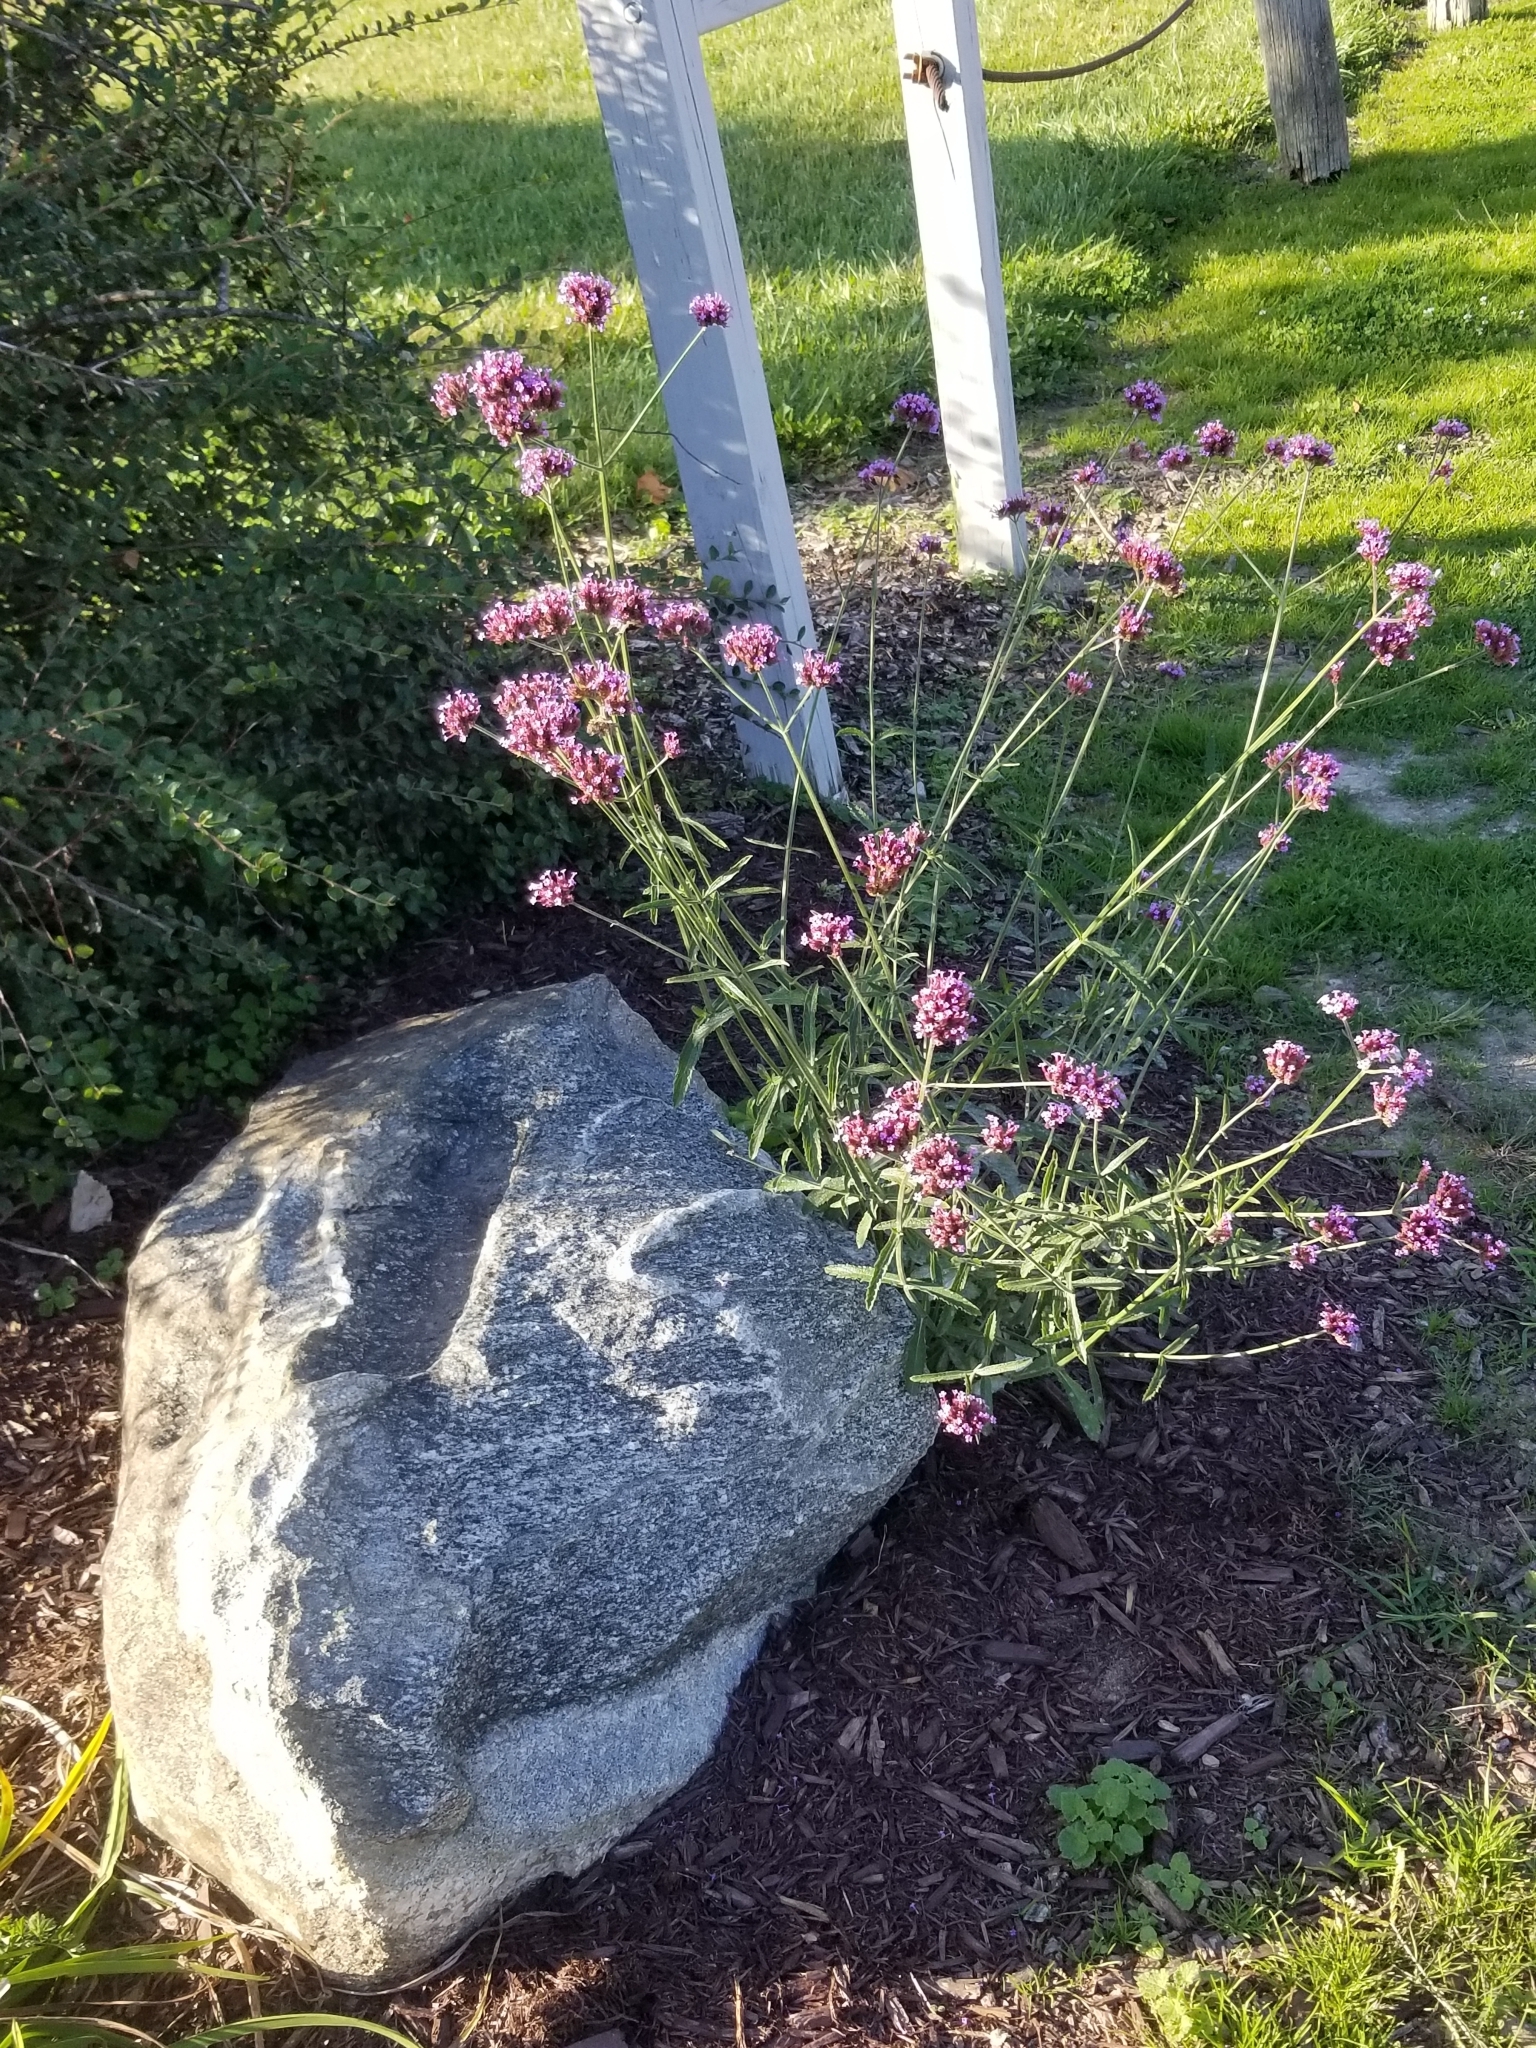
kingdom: Plantae
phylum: Tracheophyta
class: Magnoliopsida
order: Lamiales
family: Verbenaceae
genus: Verbena
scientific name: Verbena bonariensis
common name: Purpletop vervain
